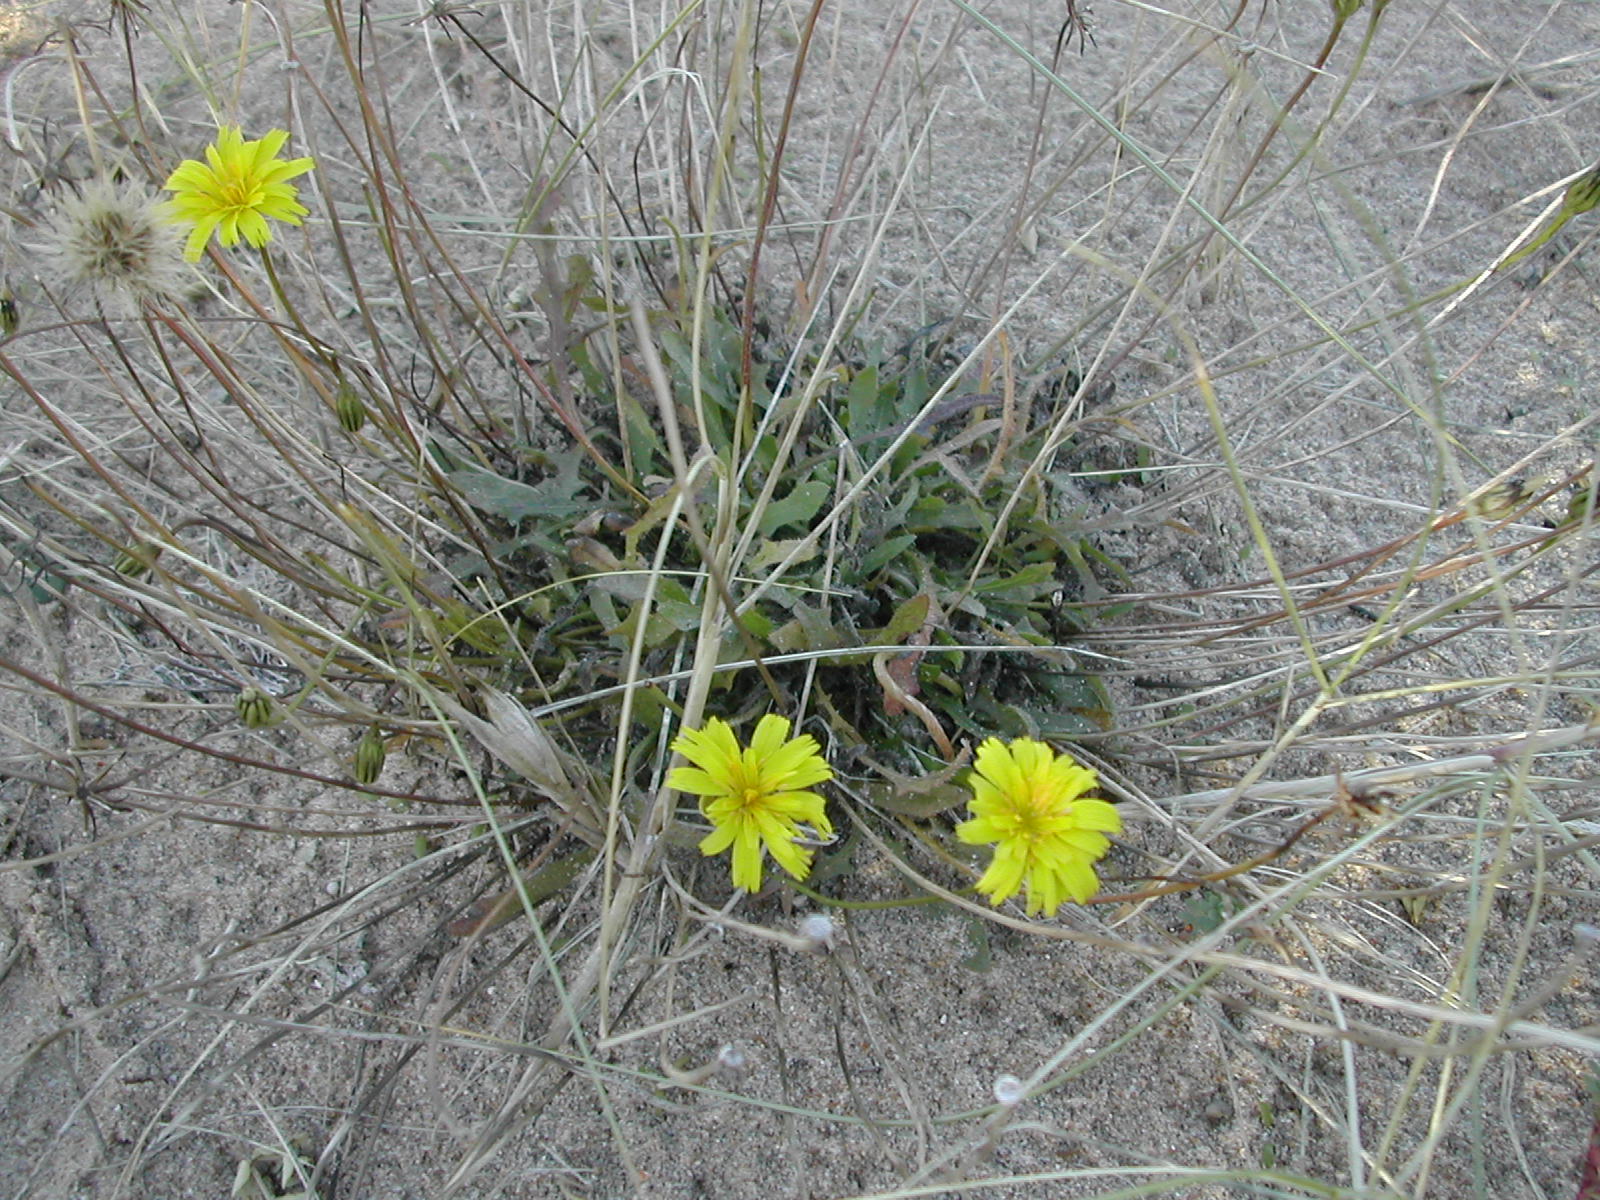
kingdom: Plantae
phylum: Tracheophyta
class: Magnoliopsida
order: Asterales
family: Asteraceae
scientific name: Asteraceae
